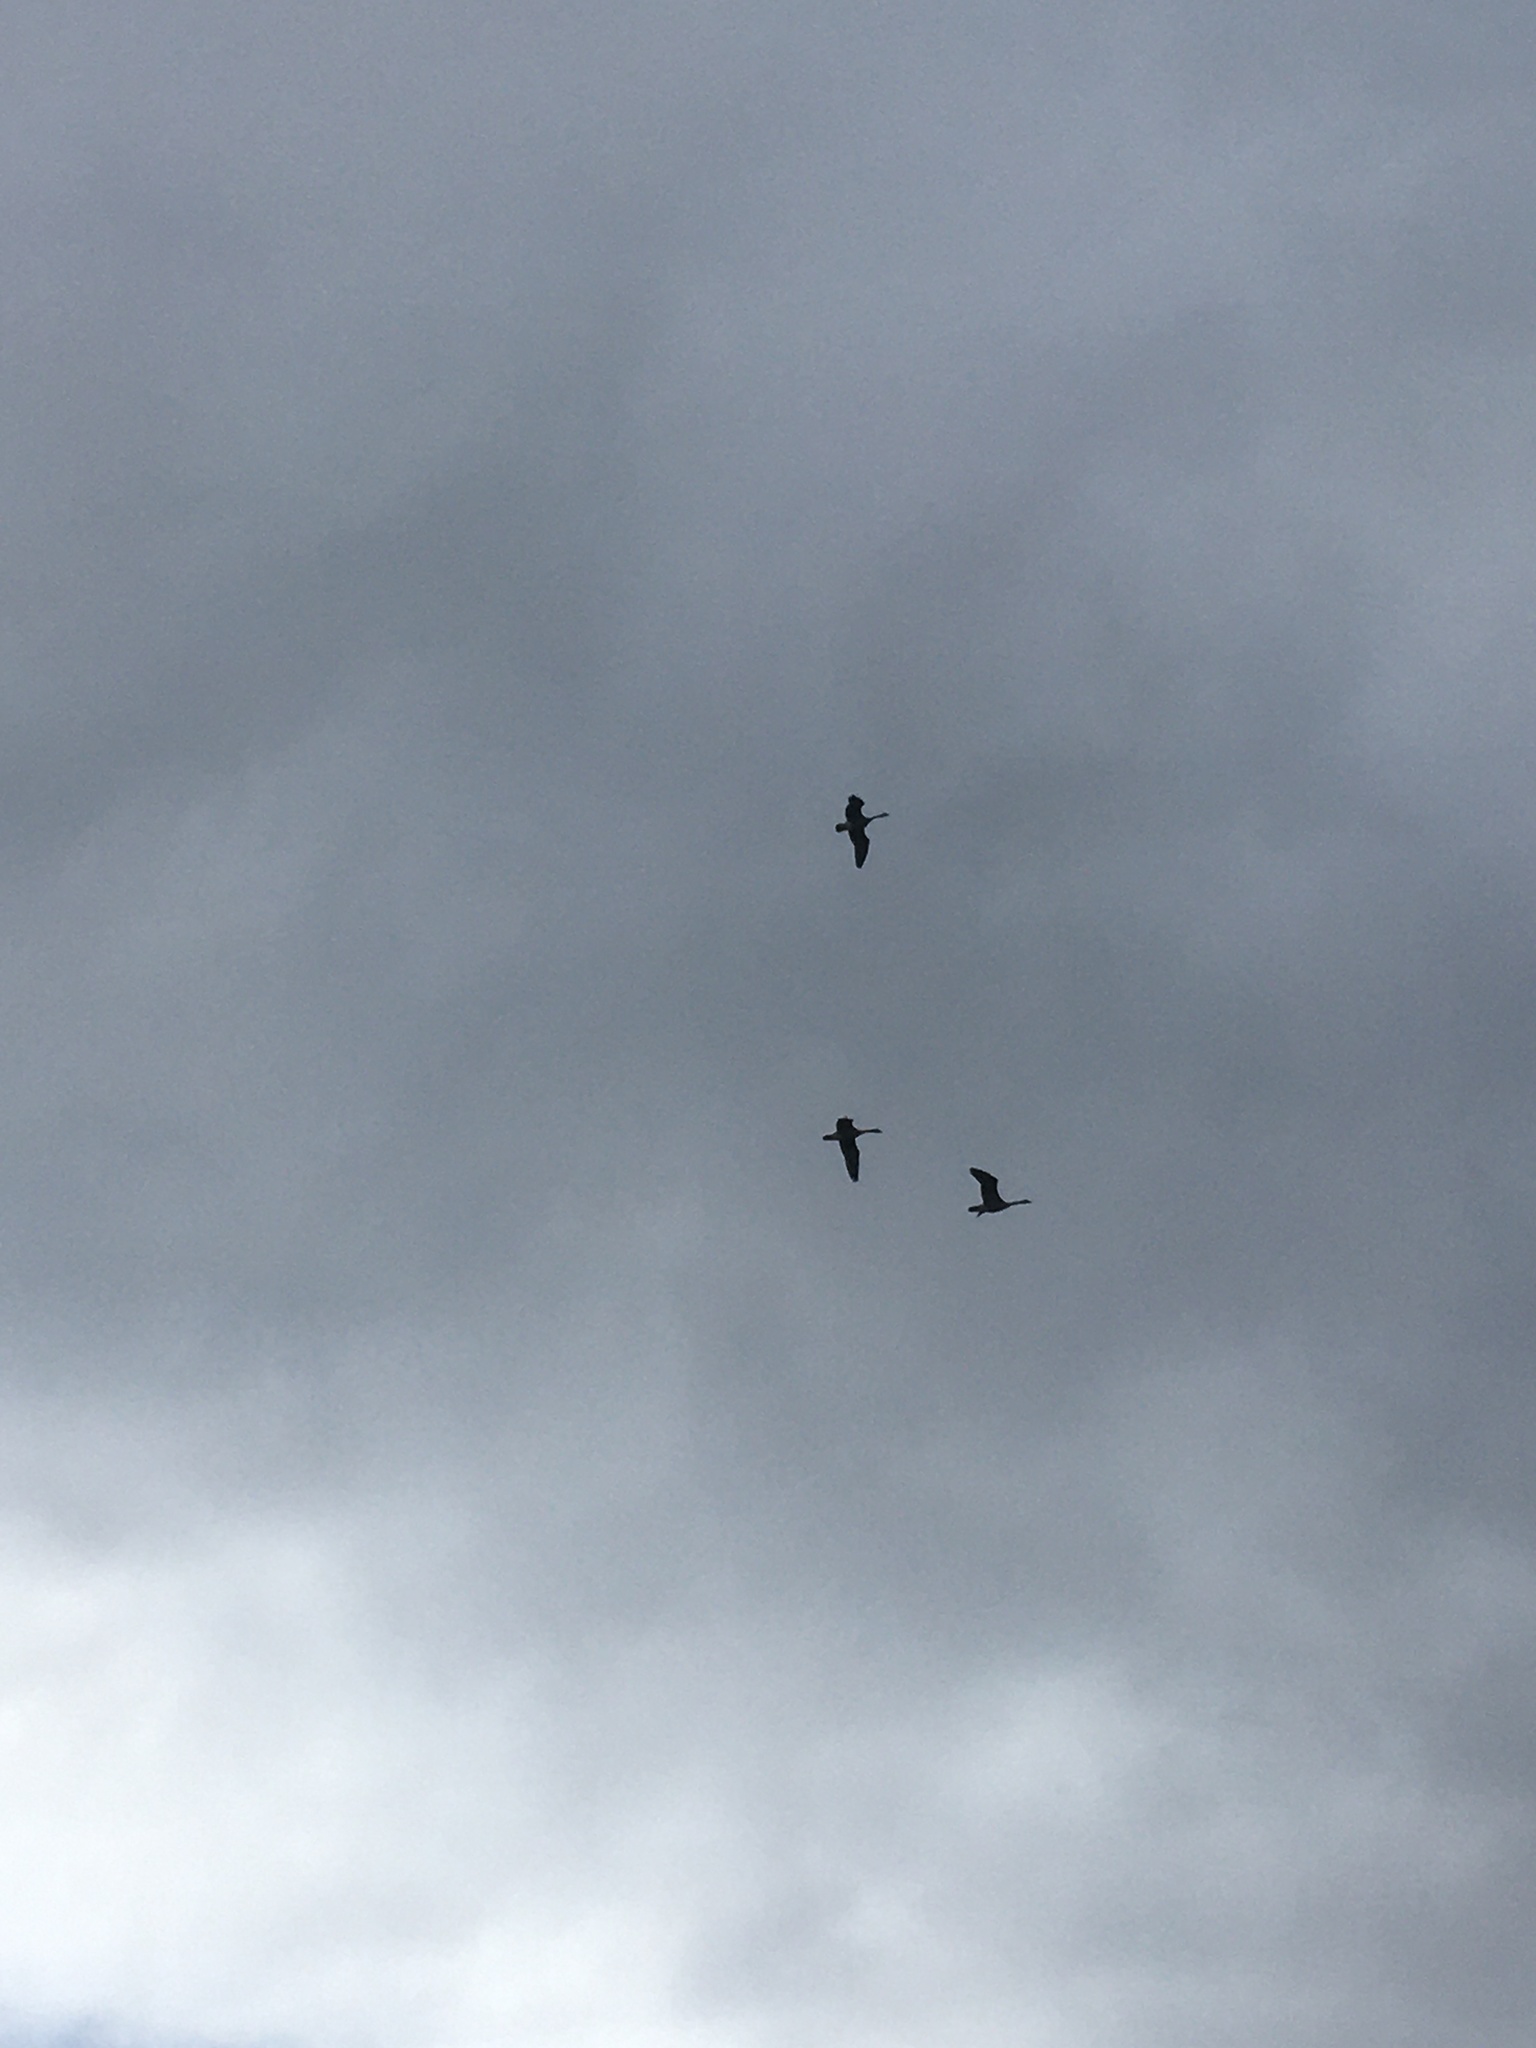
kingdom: Animalia
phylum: Chordata
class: Aves
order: Anseriformes
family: Anatidae
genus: Branta
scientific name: Branta canadensis
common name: Canada goose
